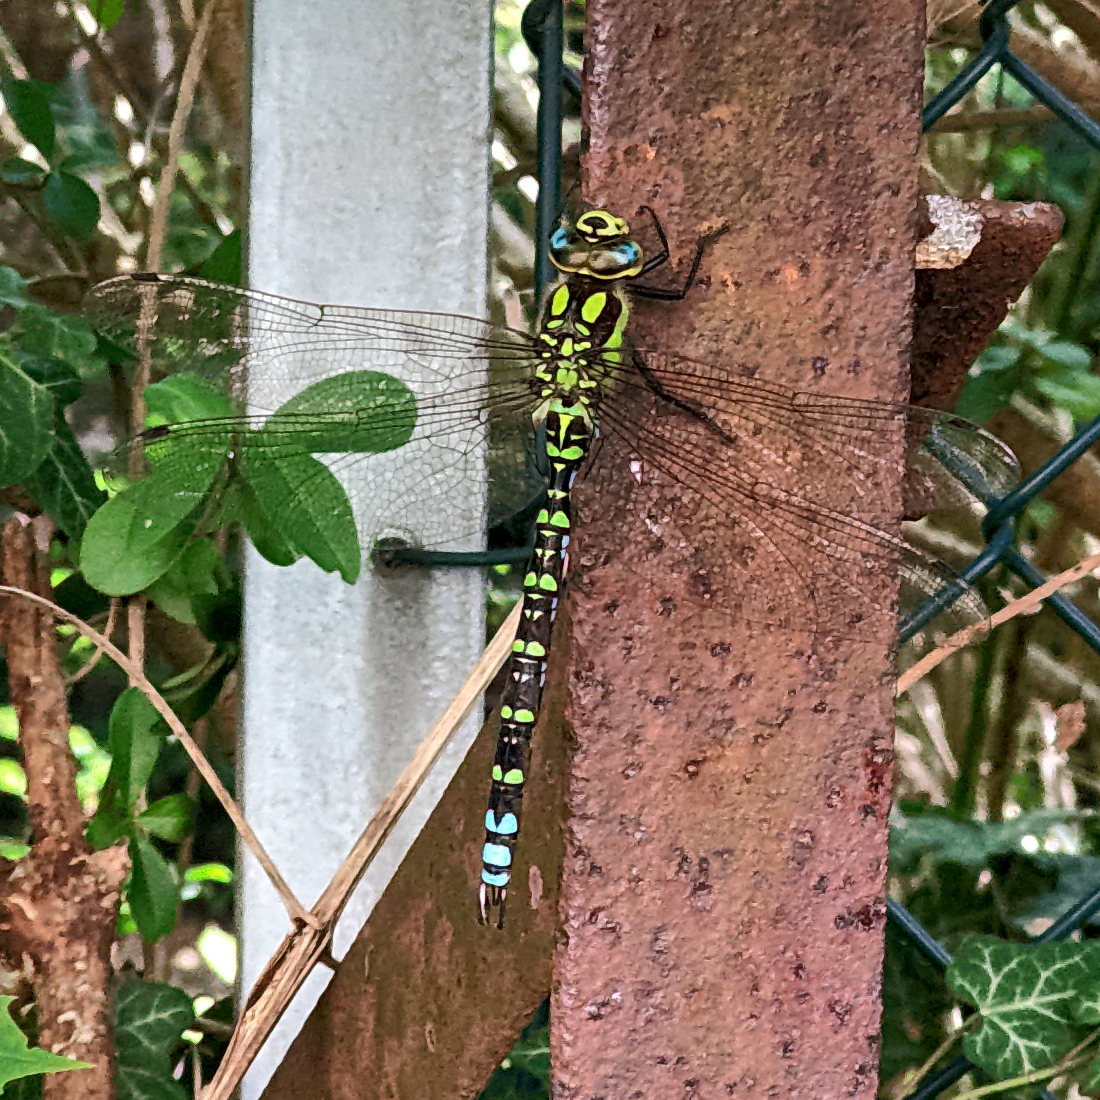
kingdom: Animalia
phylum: Arthropoda
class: Insecta
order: Odonata
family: Aeshnidae
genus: Aeshna
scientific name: Aeshna cyanea
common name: Southern hawker
